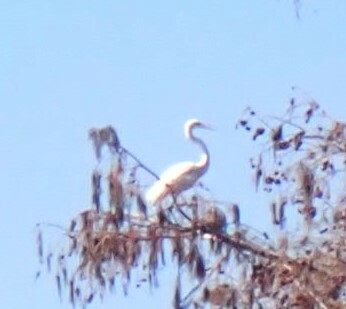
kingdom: Animalia
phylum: Chordata
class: Aves
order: Pelecaniformes
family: Ardeidae
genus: Ardea
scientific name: Ardea alba
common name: Great egret
